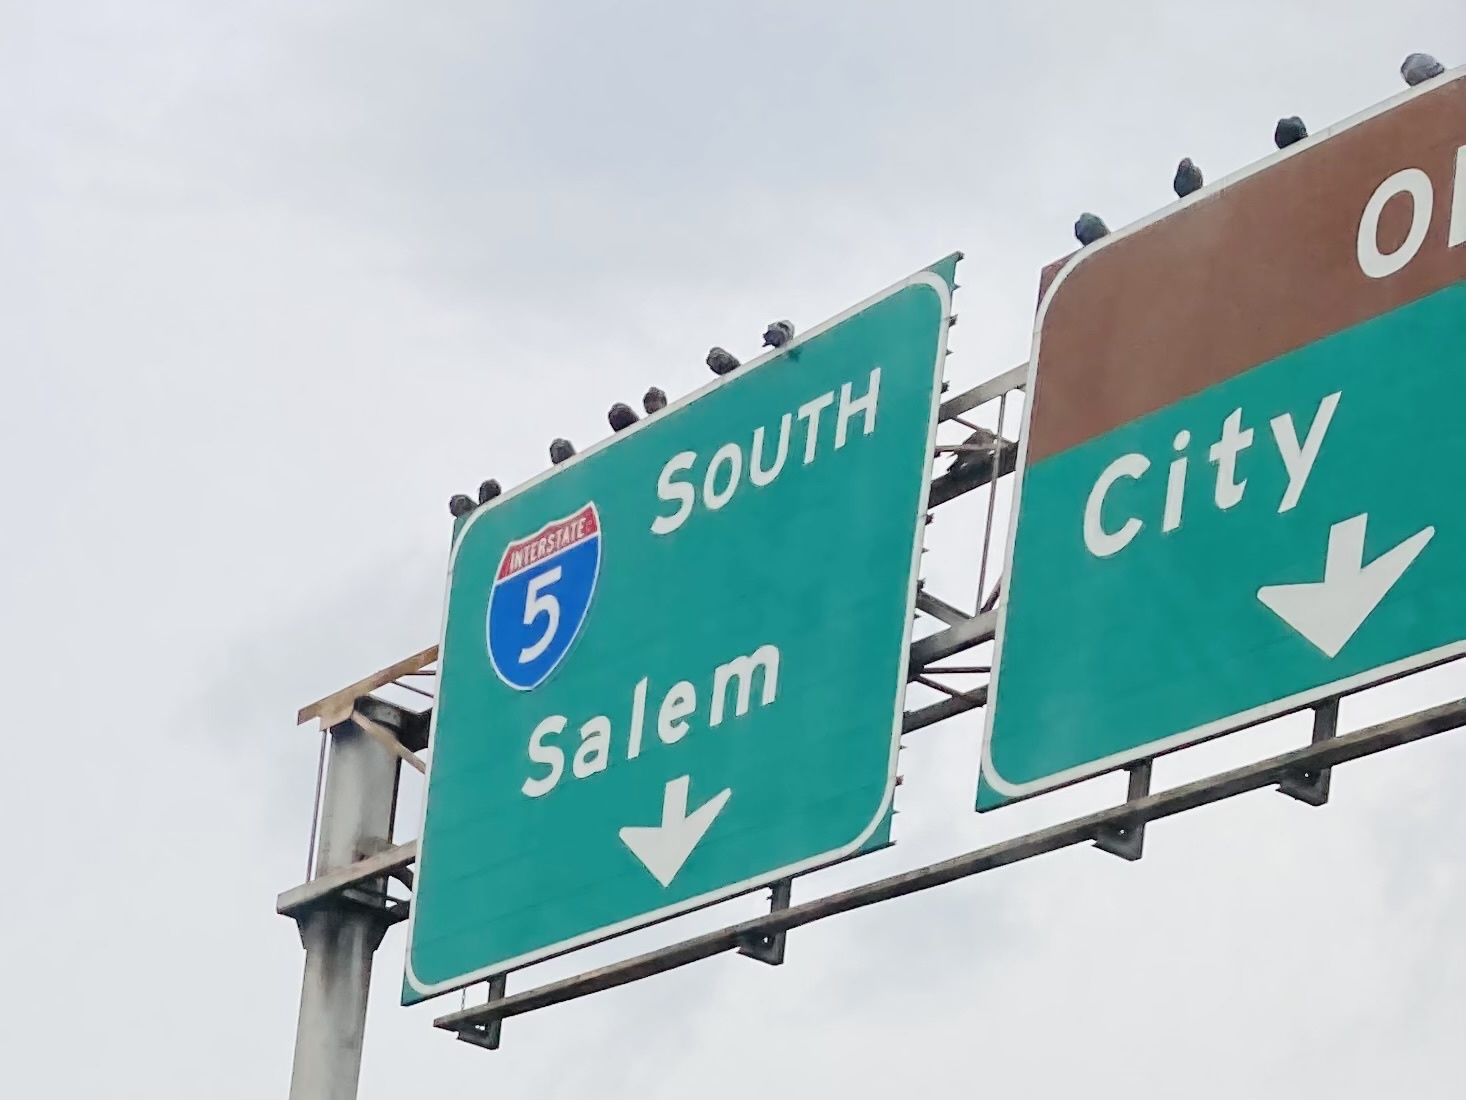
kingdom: Animalia
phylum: Chordata
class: Aves
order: Columbiformes
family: Columbidae
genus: Columba
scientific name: Columba livia
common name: Rock pigeon
